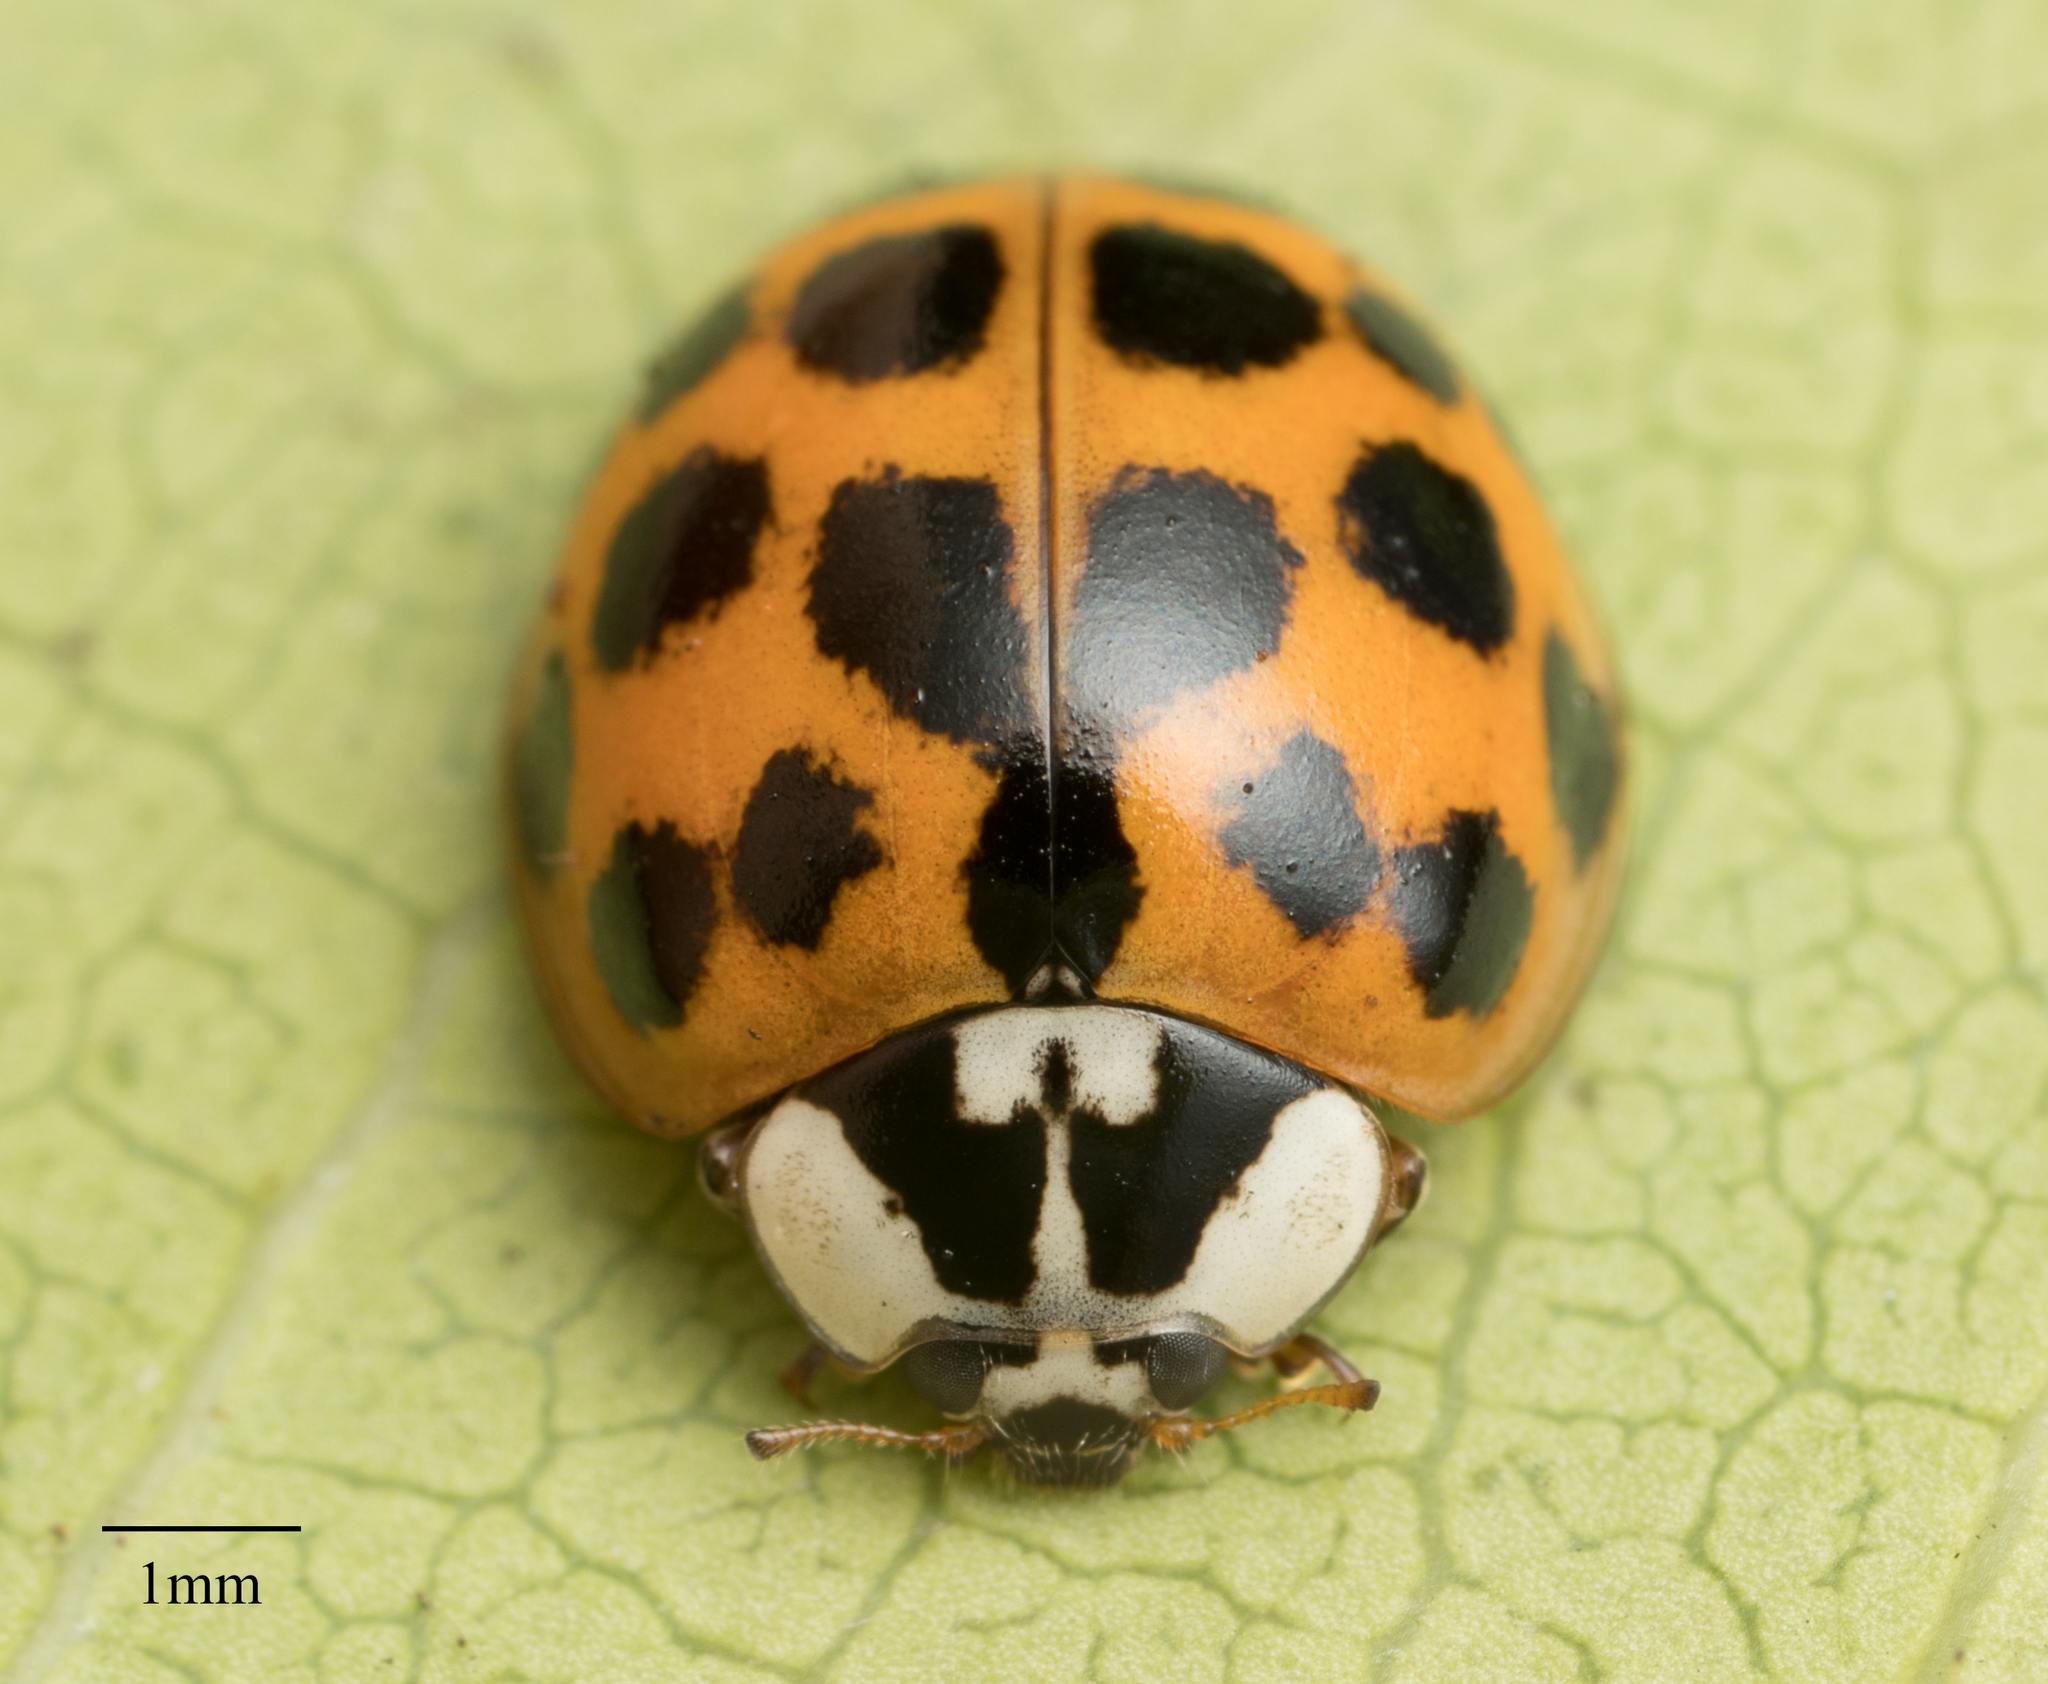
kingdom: Animalia
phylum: Arthropoda
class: Insecta
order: Coleoptera
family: Coccinellidae
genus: Harmonia
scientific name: Harmonia axyridis
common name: Harlequin ladybird
